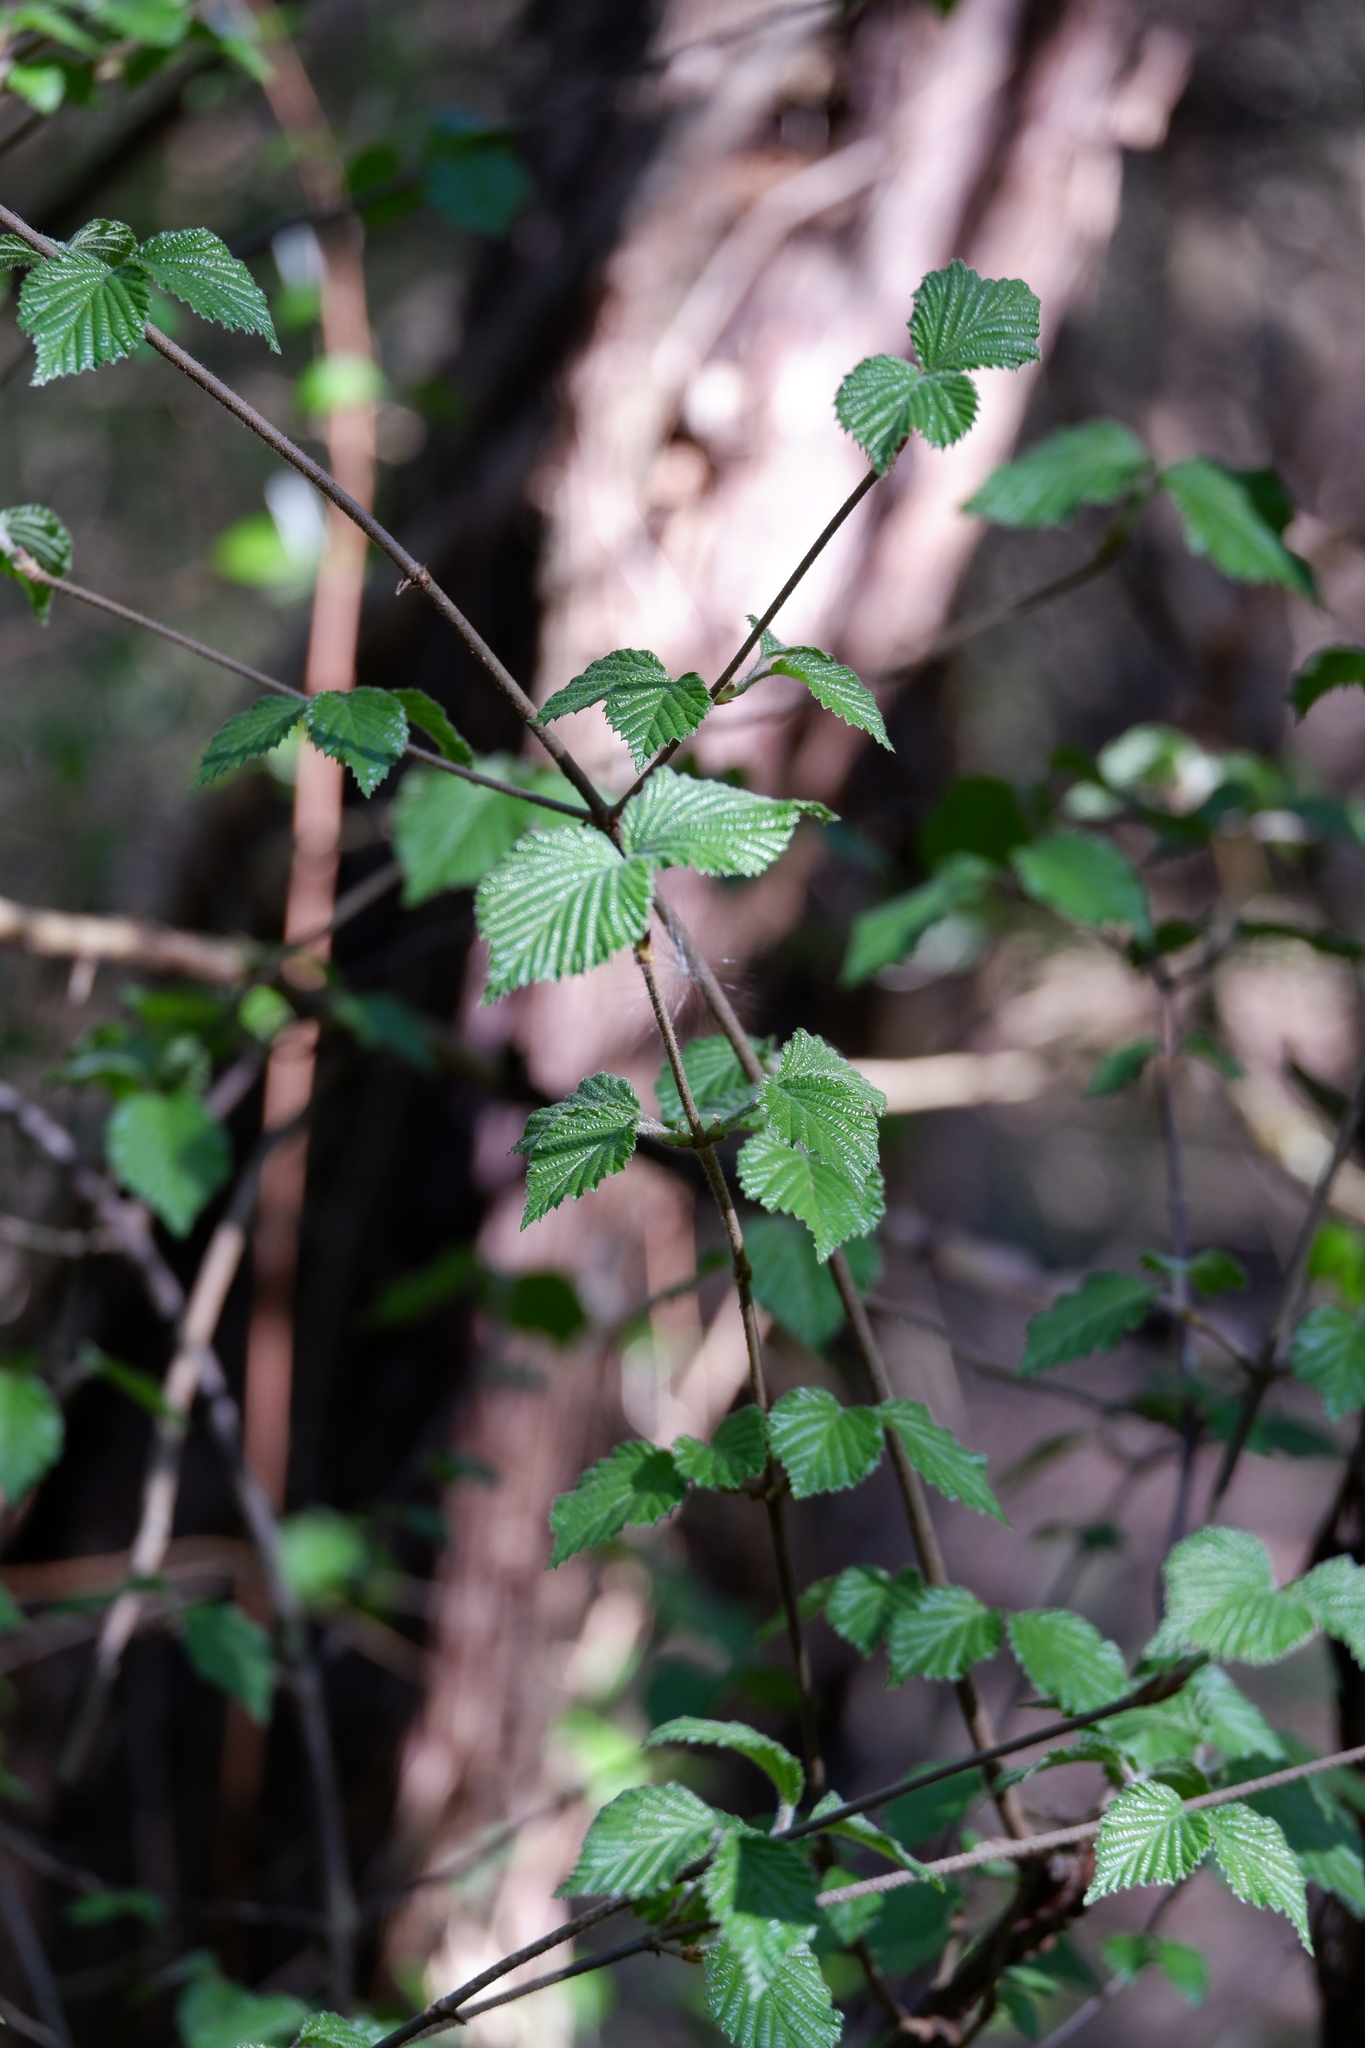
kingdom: Plantae
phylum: Tracheophyta
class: Magnoliopsida
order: Dipsacales
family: Viburnaceae
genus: Viburnum
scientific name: Viburnum dilatatum
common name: Linden arrowwood
